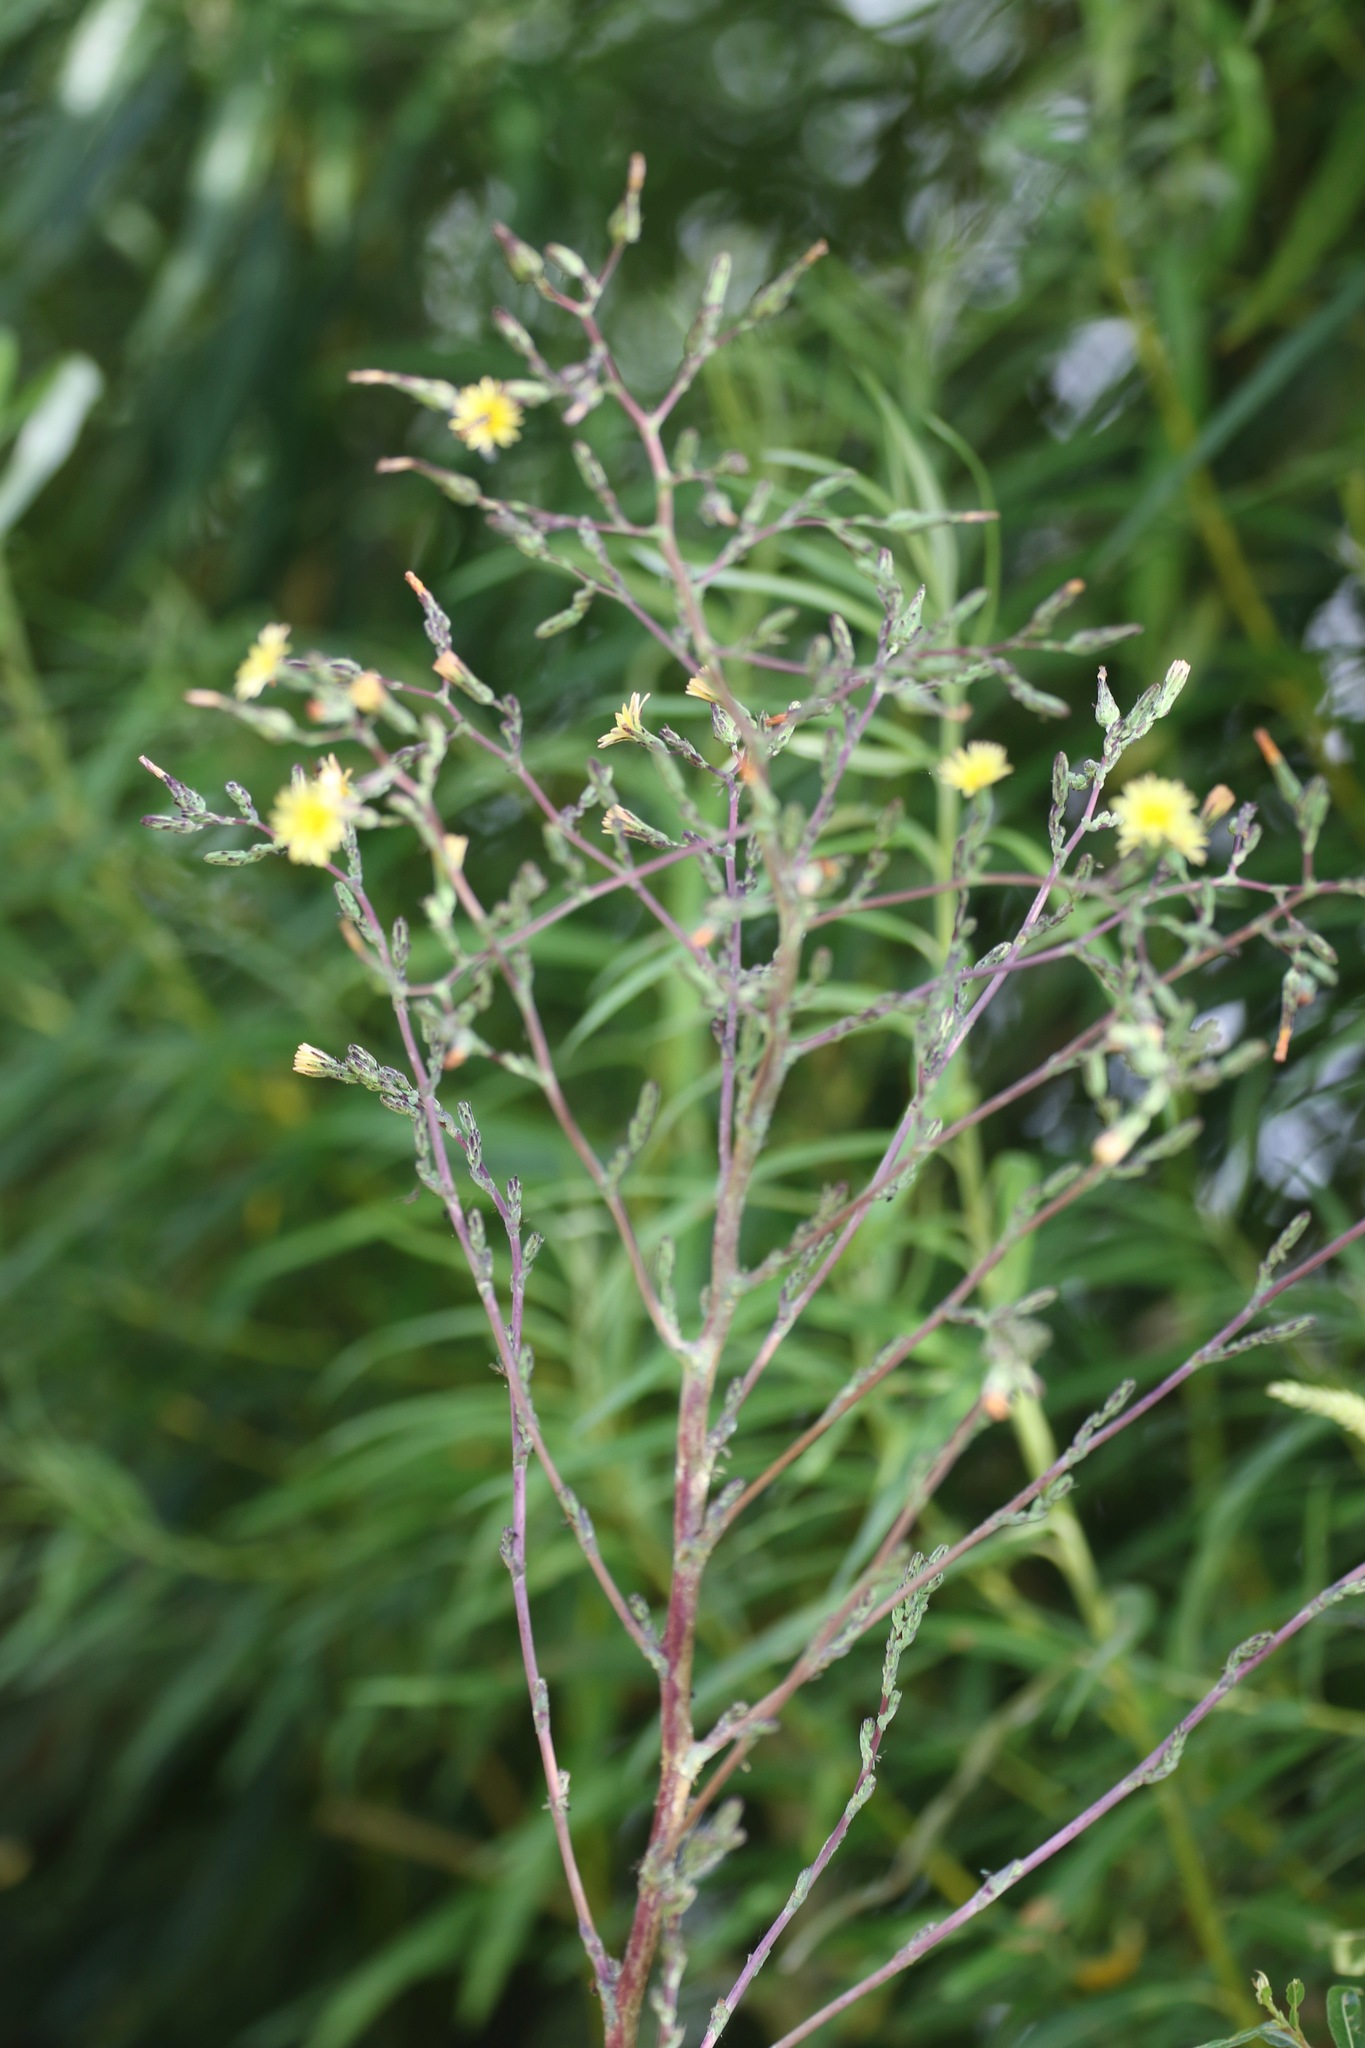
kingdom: Plantae
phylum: Tracheophyta
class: Magnoliopsida
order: Asterales
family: Asteraceae
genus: Lactuca
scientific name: Lactuca virosa
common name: Great lettuce
